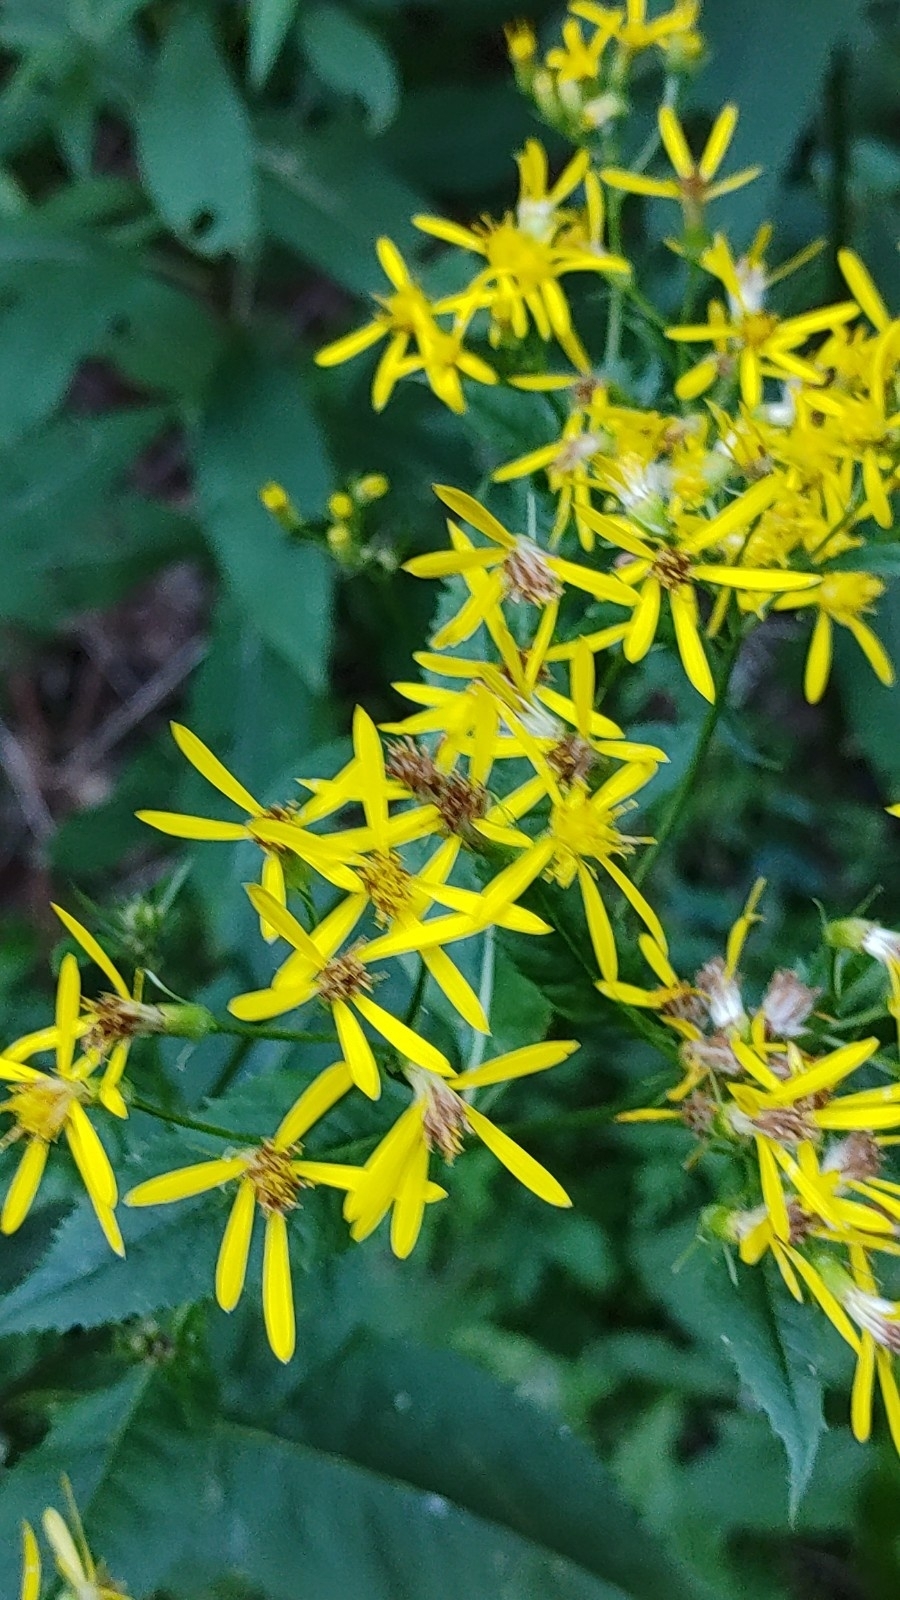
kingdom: Plantae
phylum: Tracheophyta
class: Magnoliopsida
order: Asterales
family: Asteraceae
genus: Senecio
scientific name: Senecio ovatus
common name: Wood ragwort
